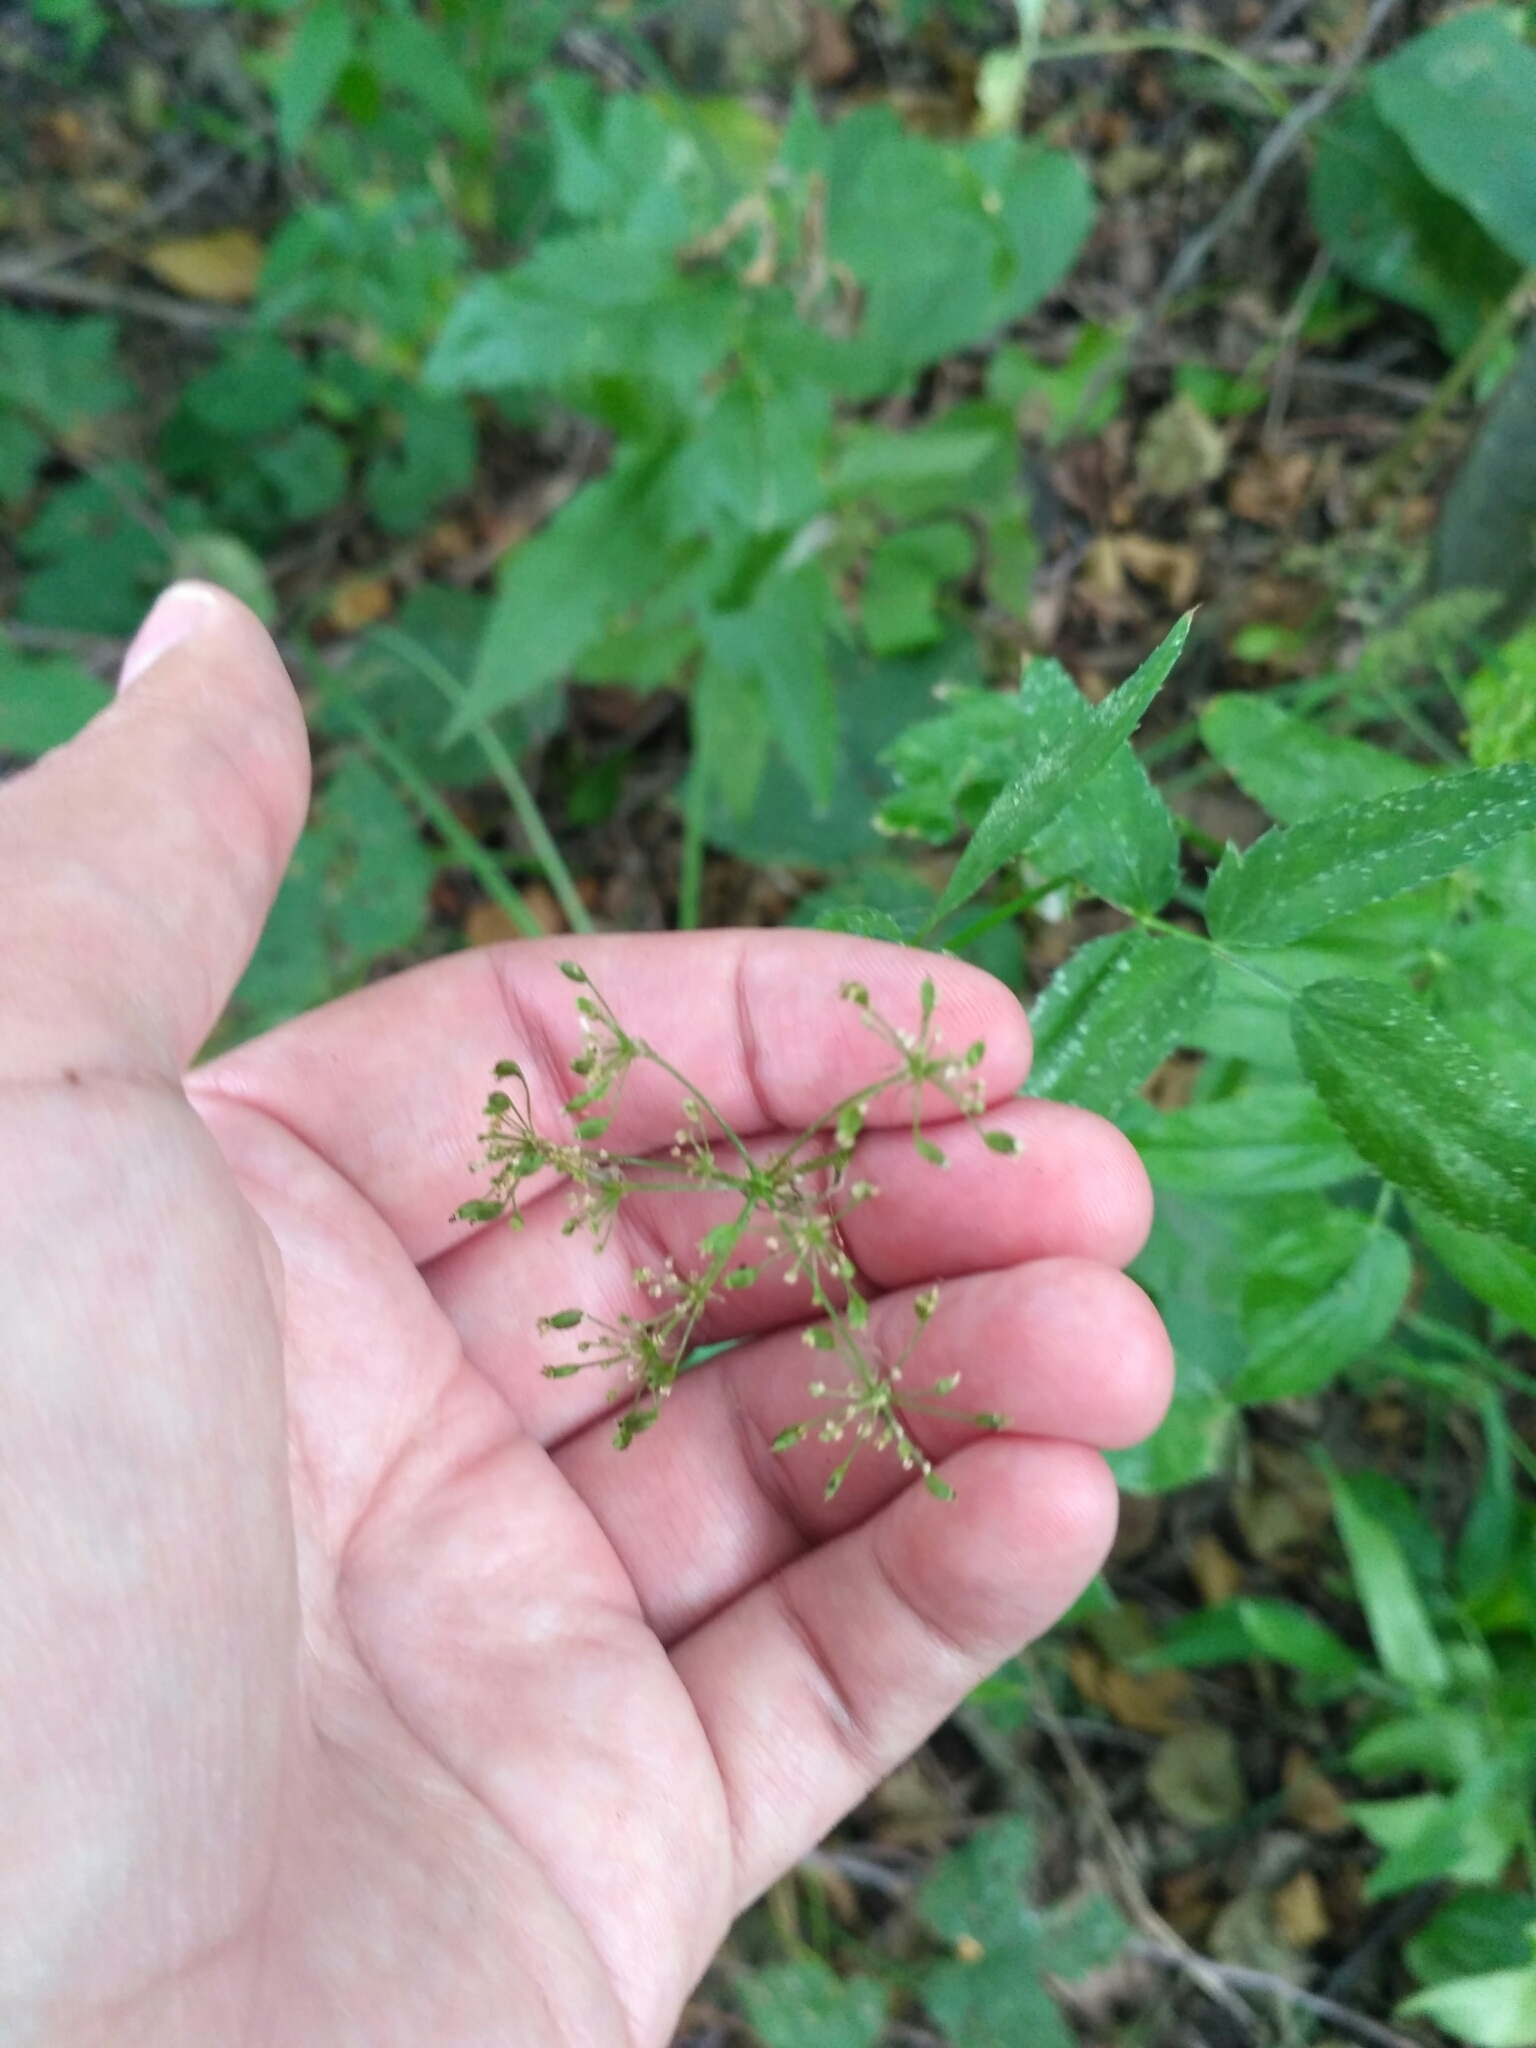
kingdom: Plantae
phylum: Tracheophyta
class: Magnoliopsida
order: Apiales
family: Apiaceae
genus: Sium
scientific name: Sium sisarum
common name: Skirret
